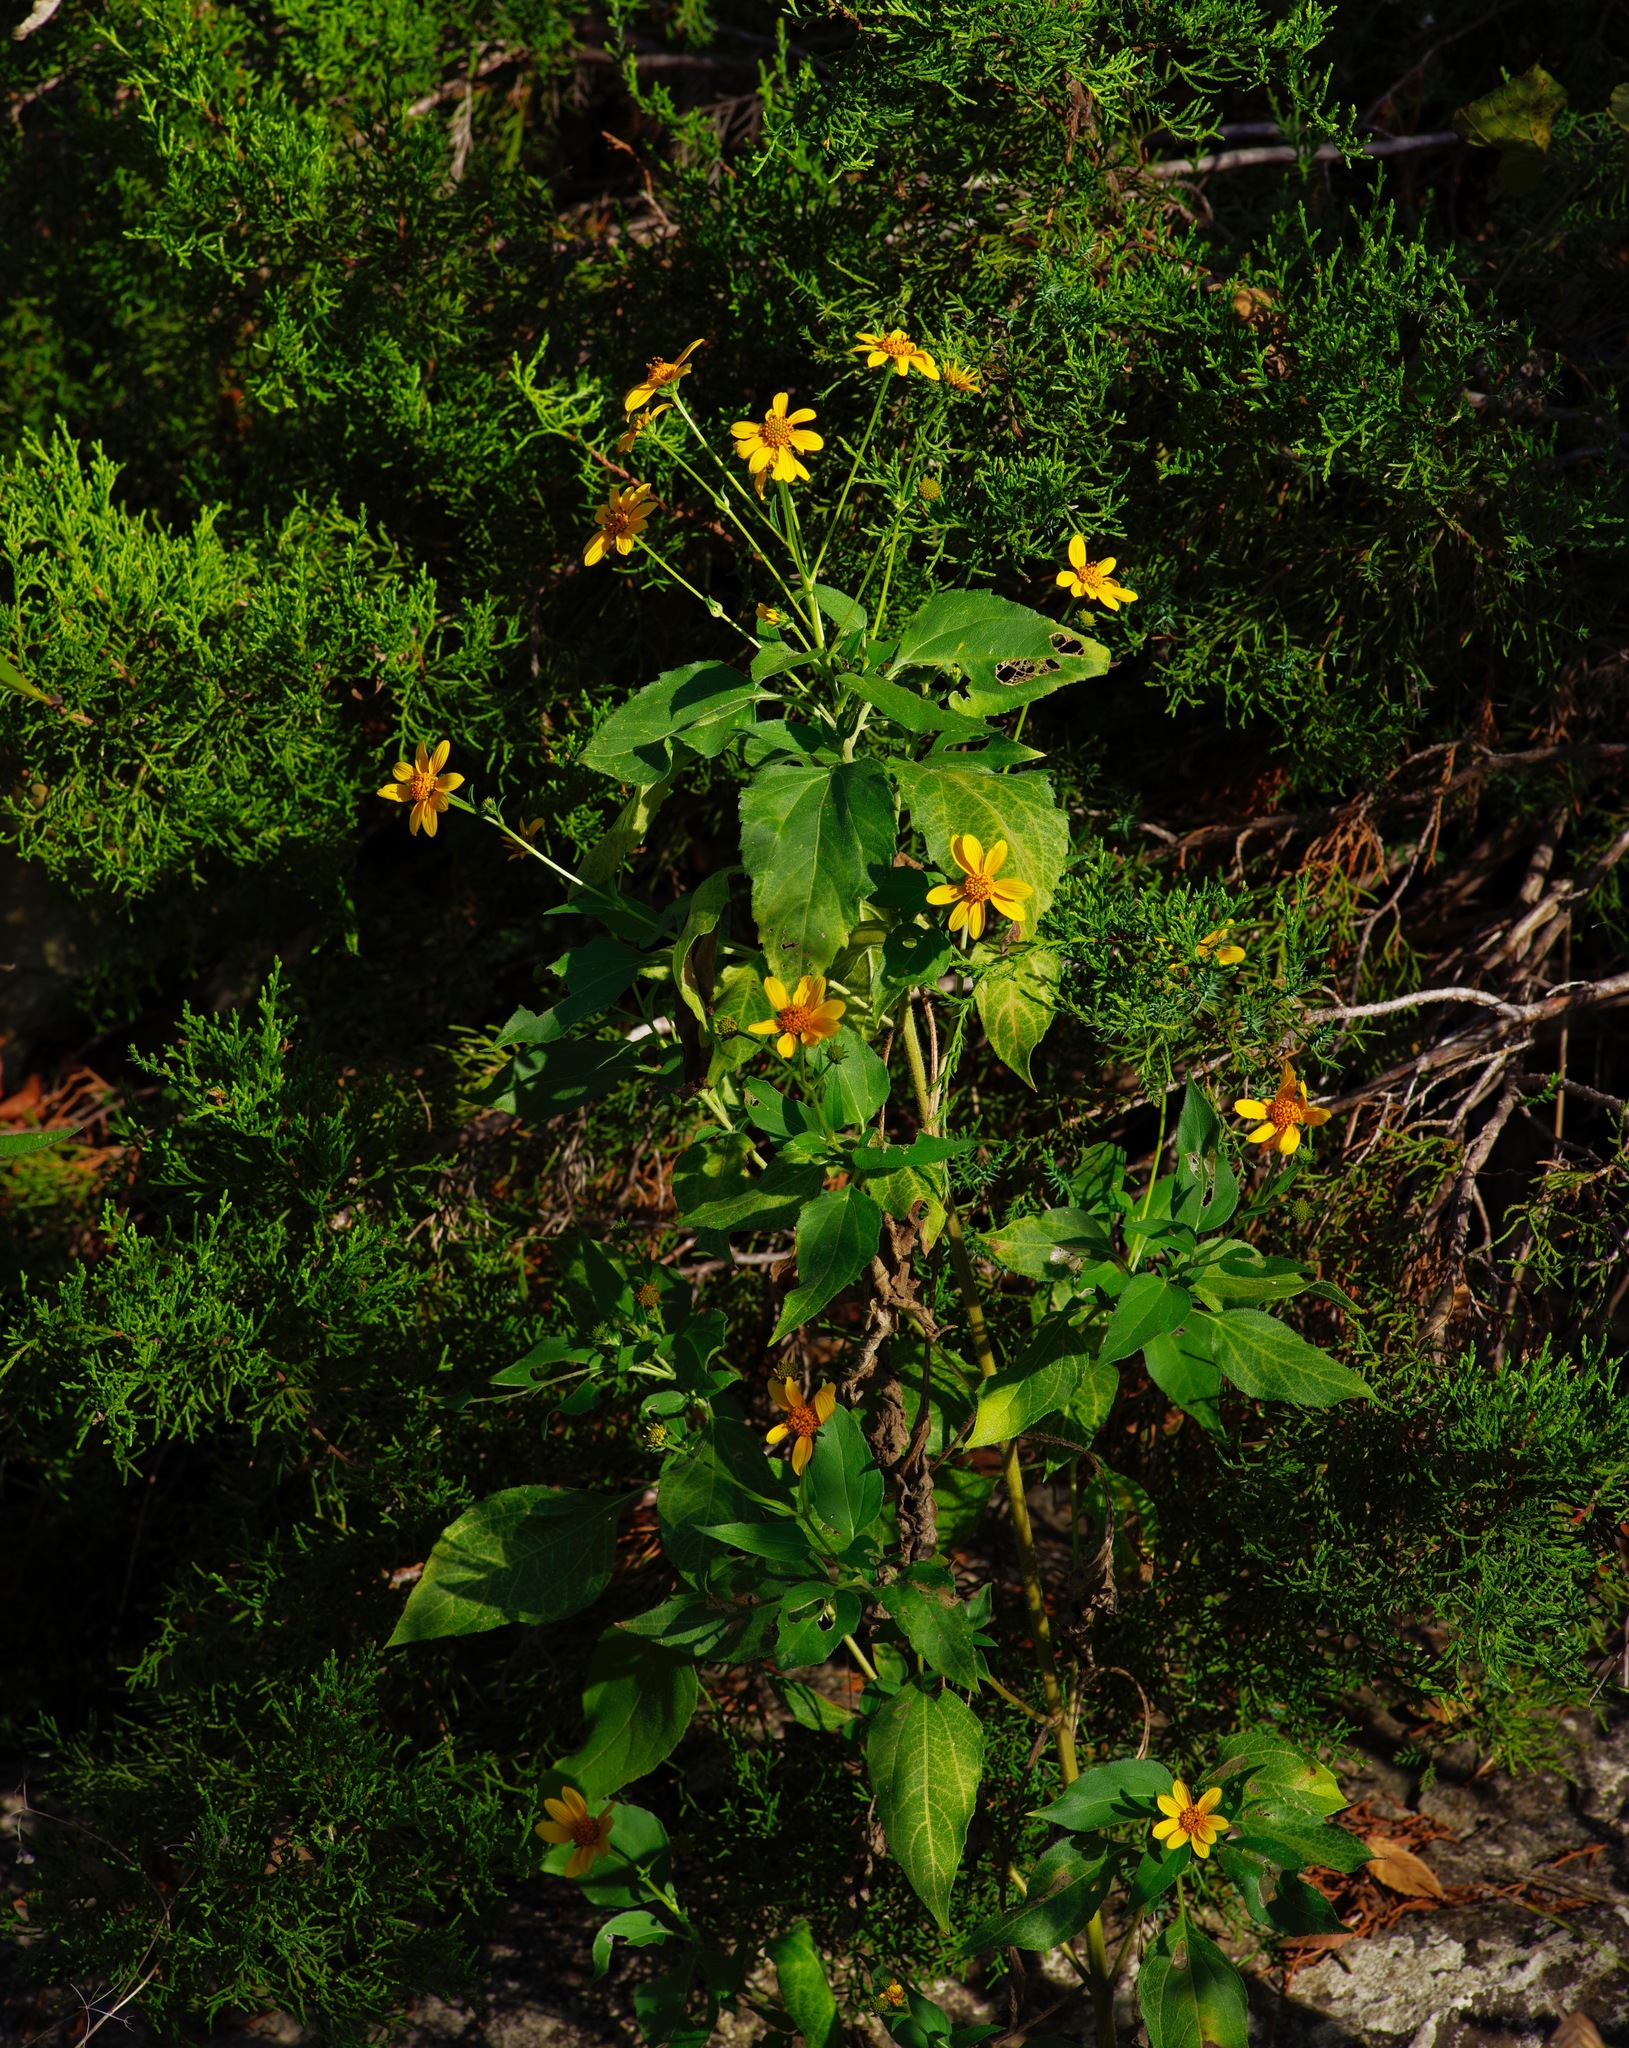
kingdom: Plantae
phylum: Tracheophyta
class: Magnoliopsida
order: Asterales
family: Asteraceae
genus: Viguiera
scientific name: Viguiera dentata
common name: Toothleaf
